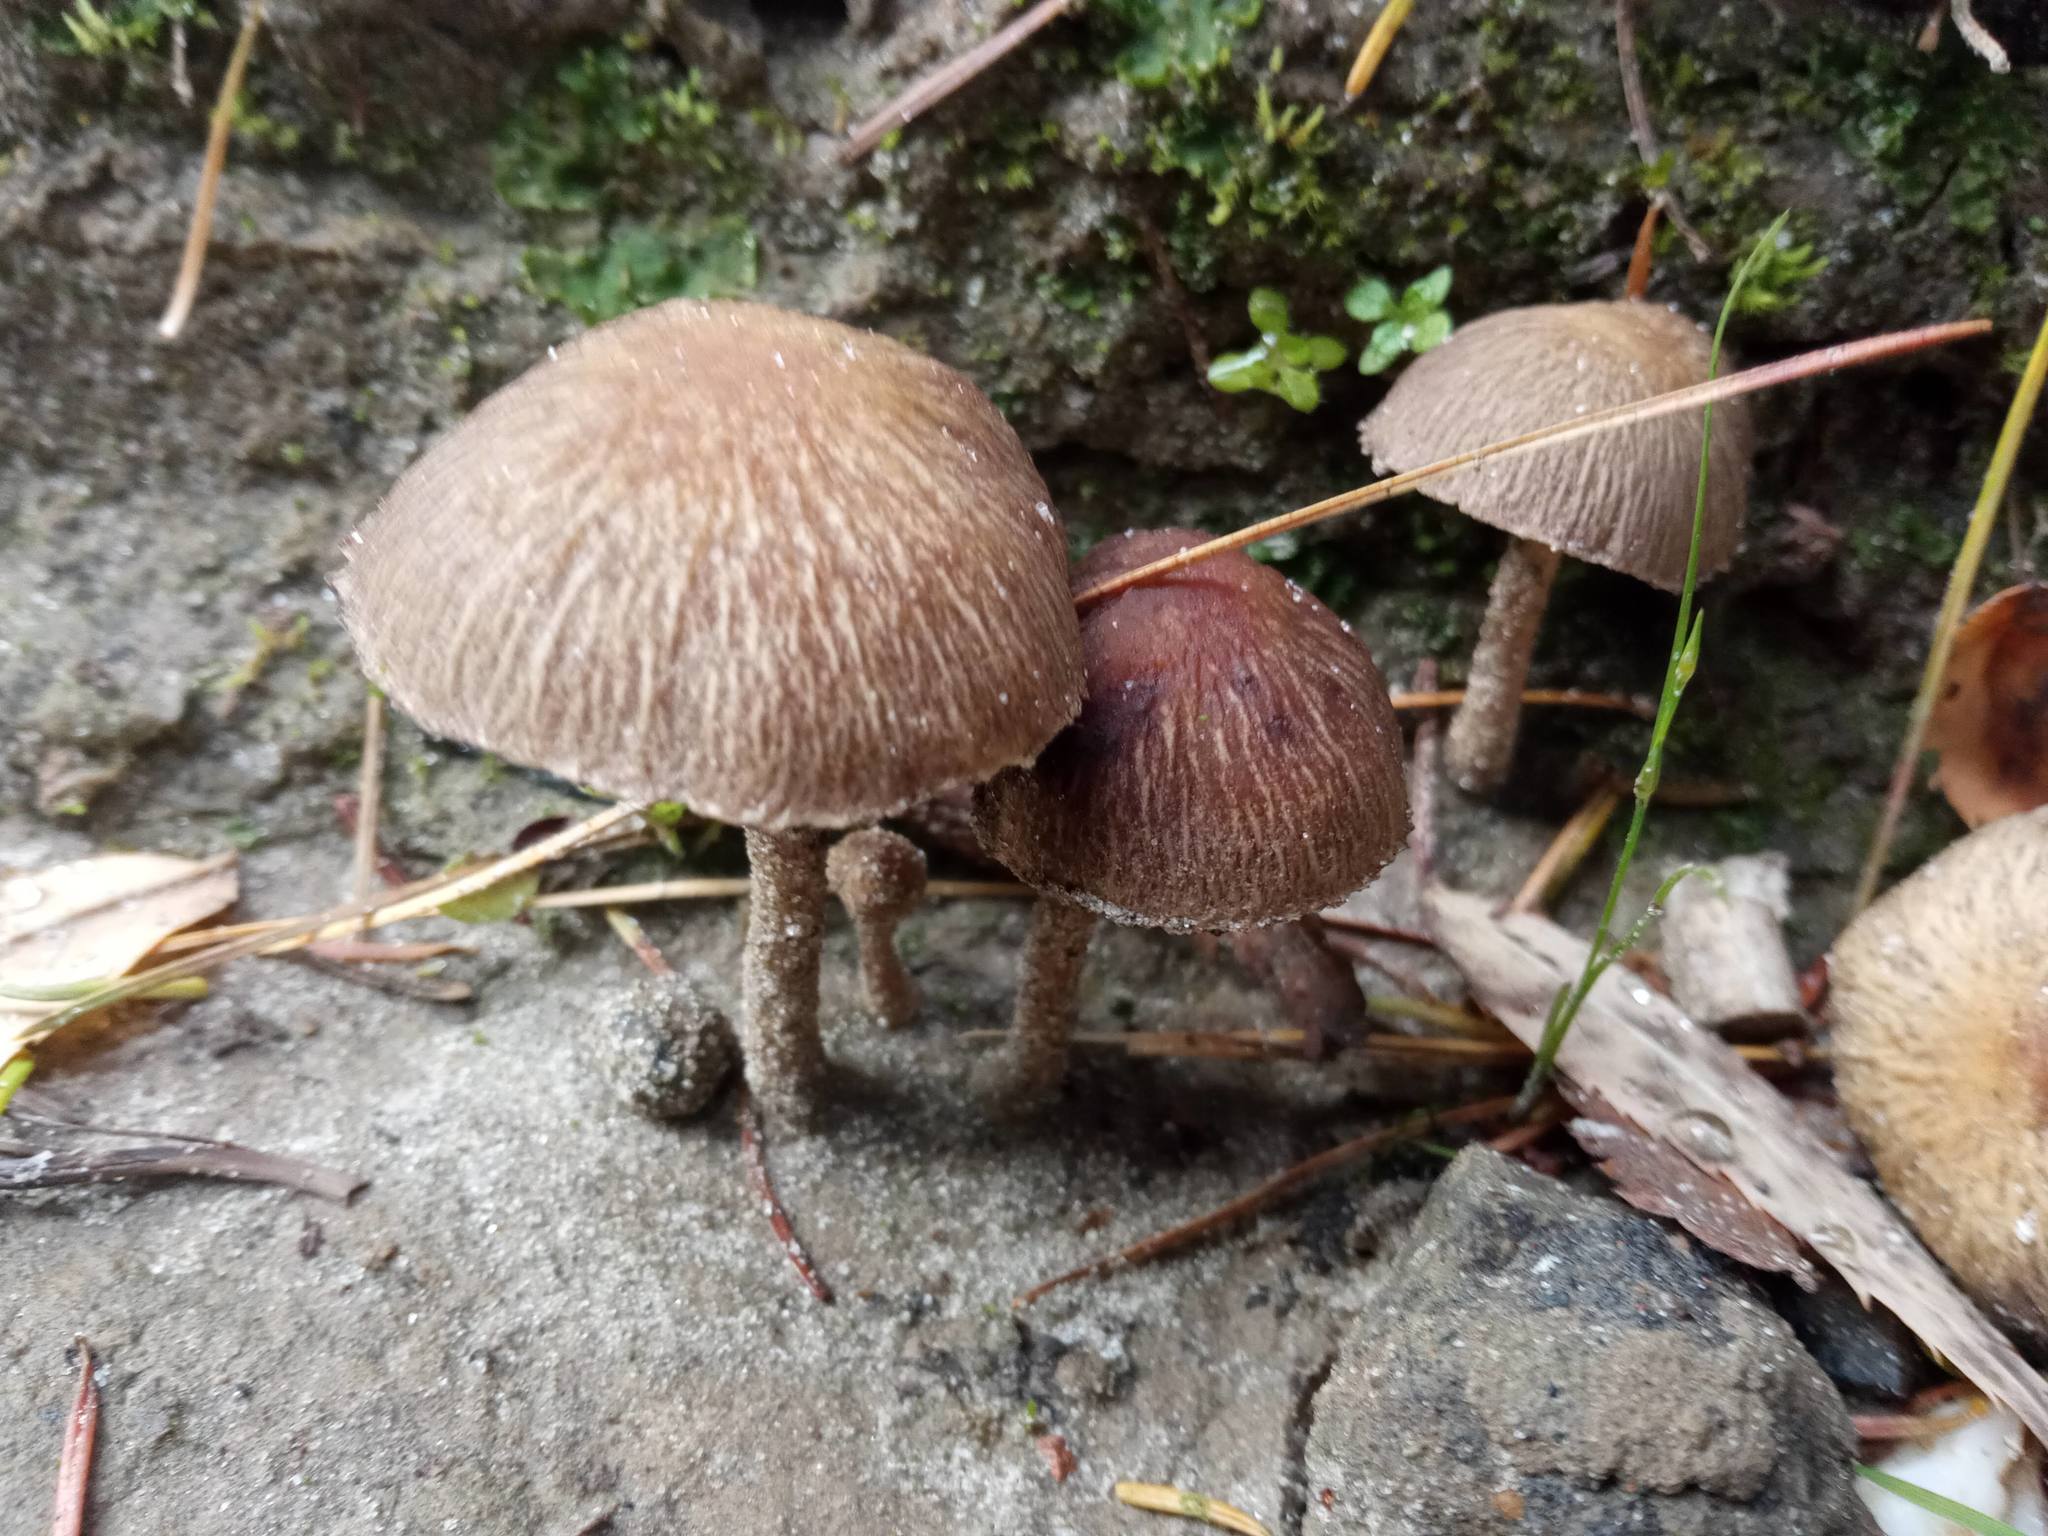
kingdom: Fungi
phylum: Basidiomycota
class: Agaricomycetes
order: Agaricales
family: Psathyrellaceae
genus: Lacrymaria
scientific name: Lacrymaria lacrymabunda
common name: Weeping widow
